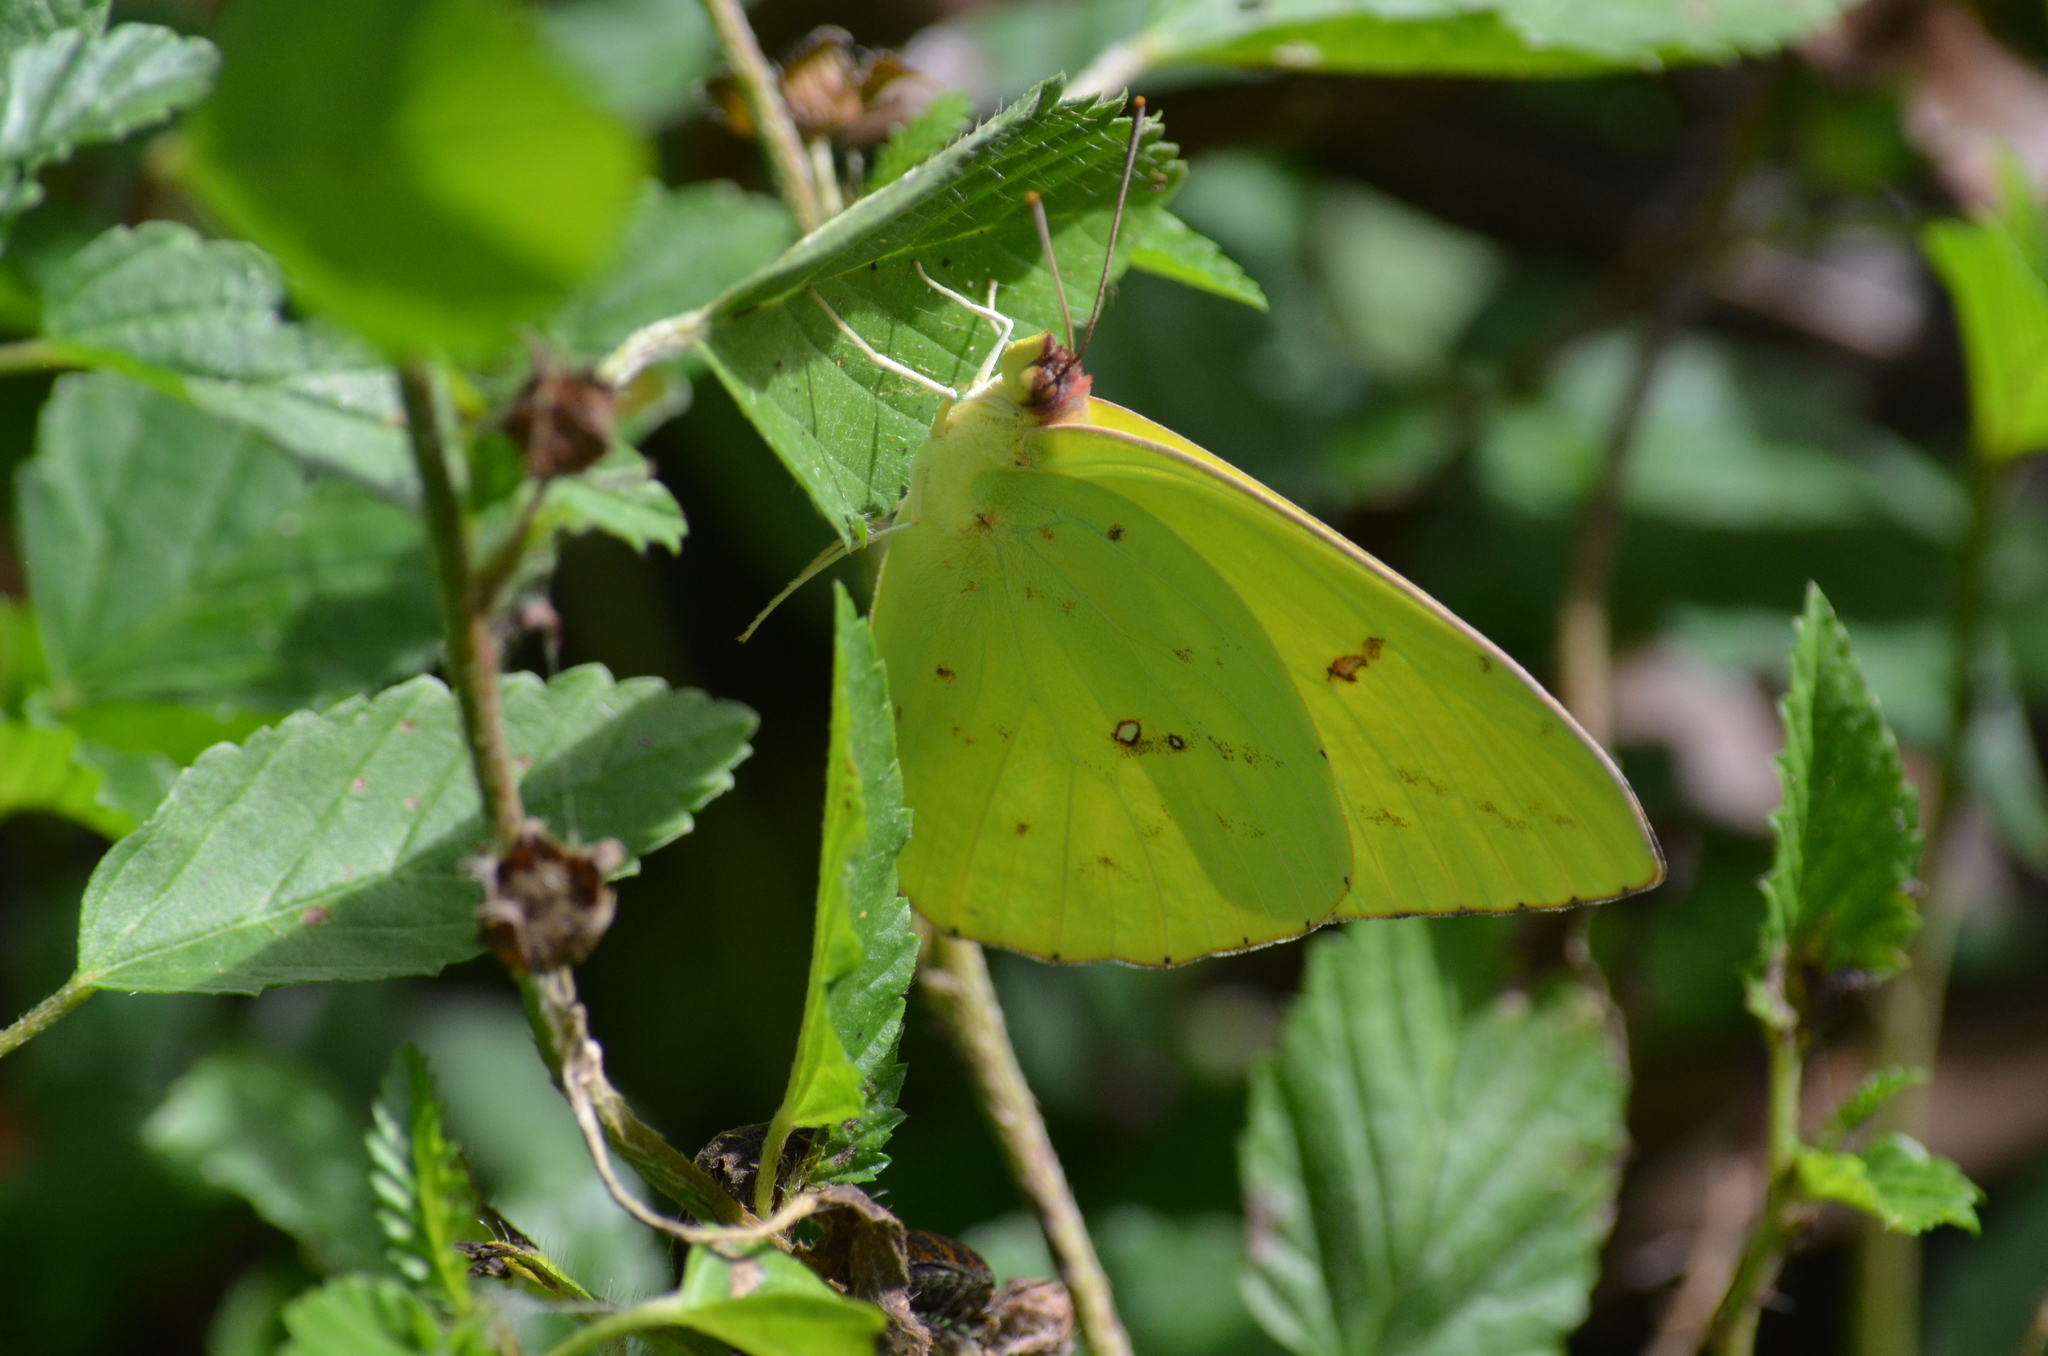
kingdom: Animalia
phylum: Arthropoda
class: Insecta
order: Lepidoptera
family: Pieridae
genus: Phoebis
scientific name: Phoebis sennae
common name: Cloudless sulphur
